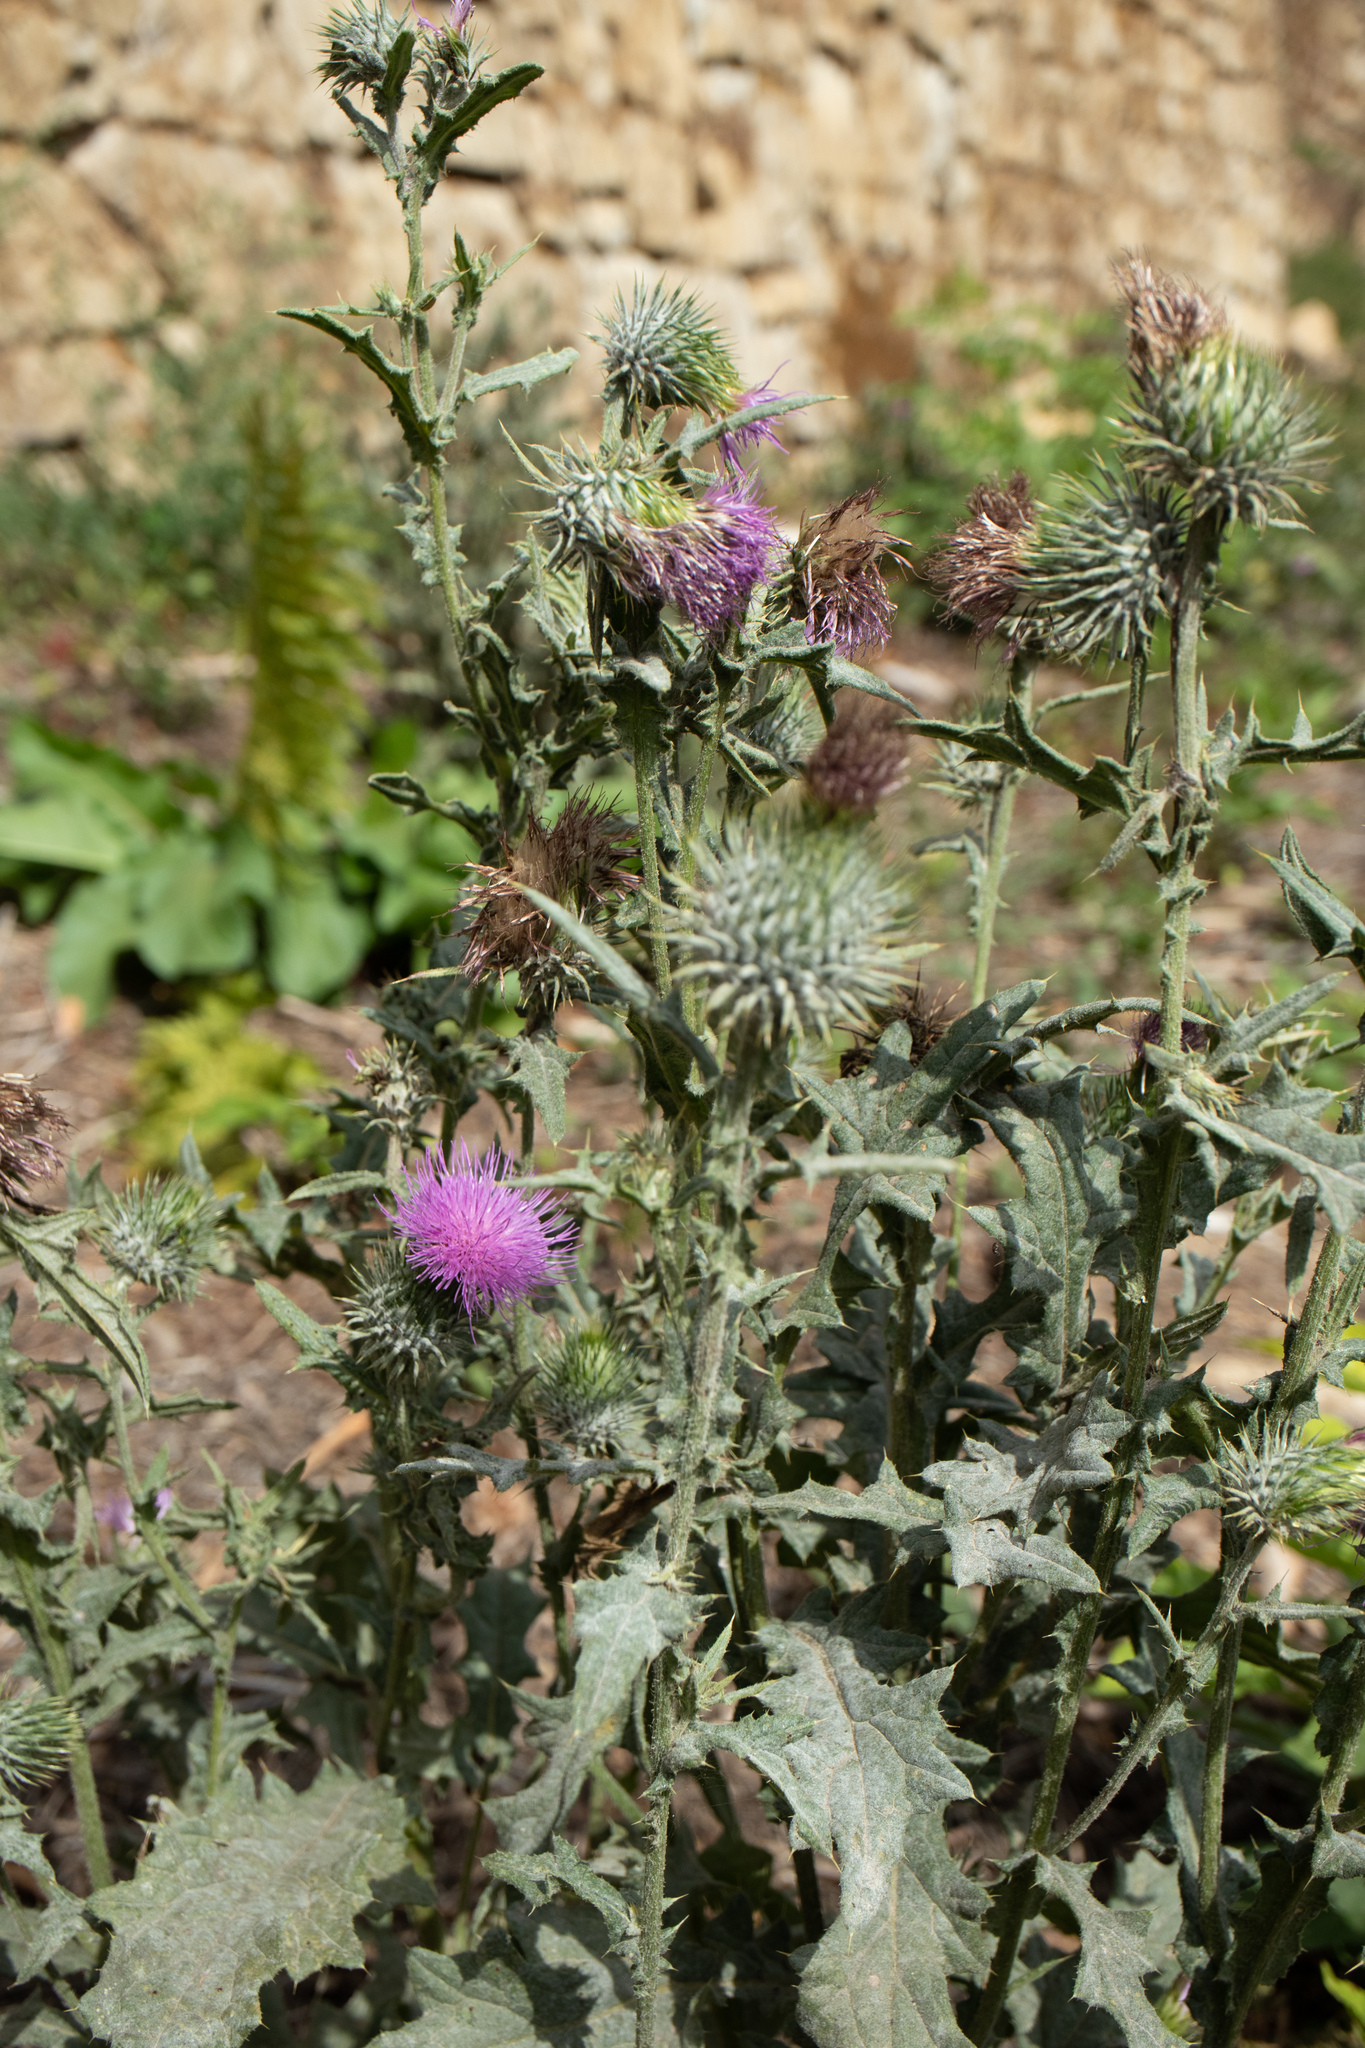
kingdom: Plantae
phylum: Tracheophyta
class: Magnoliopsida
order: Asterales
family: Asteraceae
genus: Cirsium
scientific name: Cirsium vulgare
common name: Bull thistle
